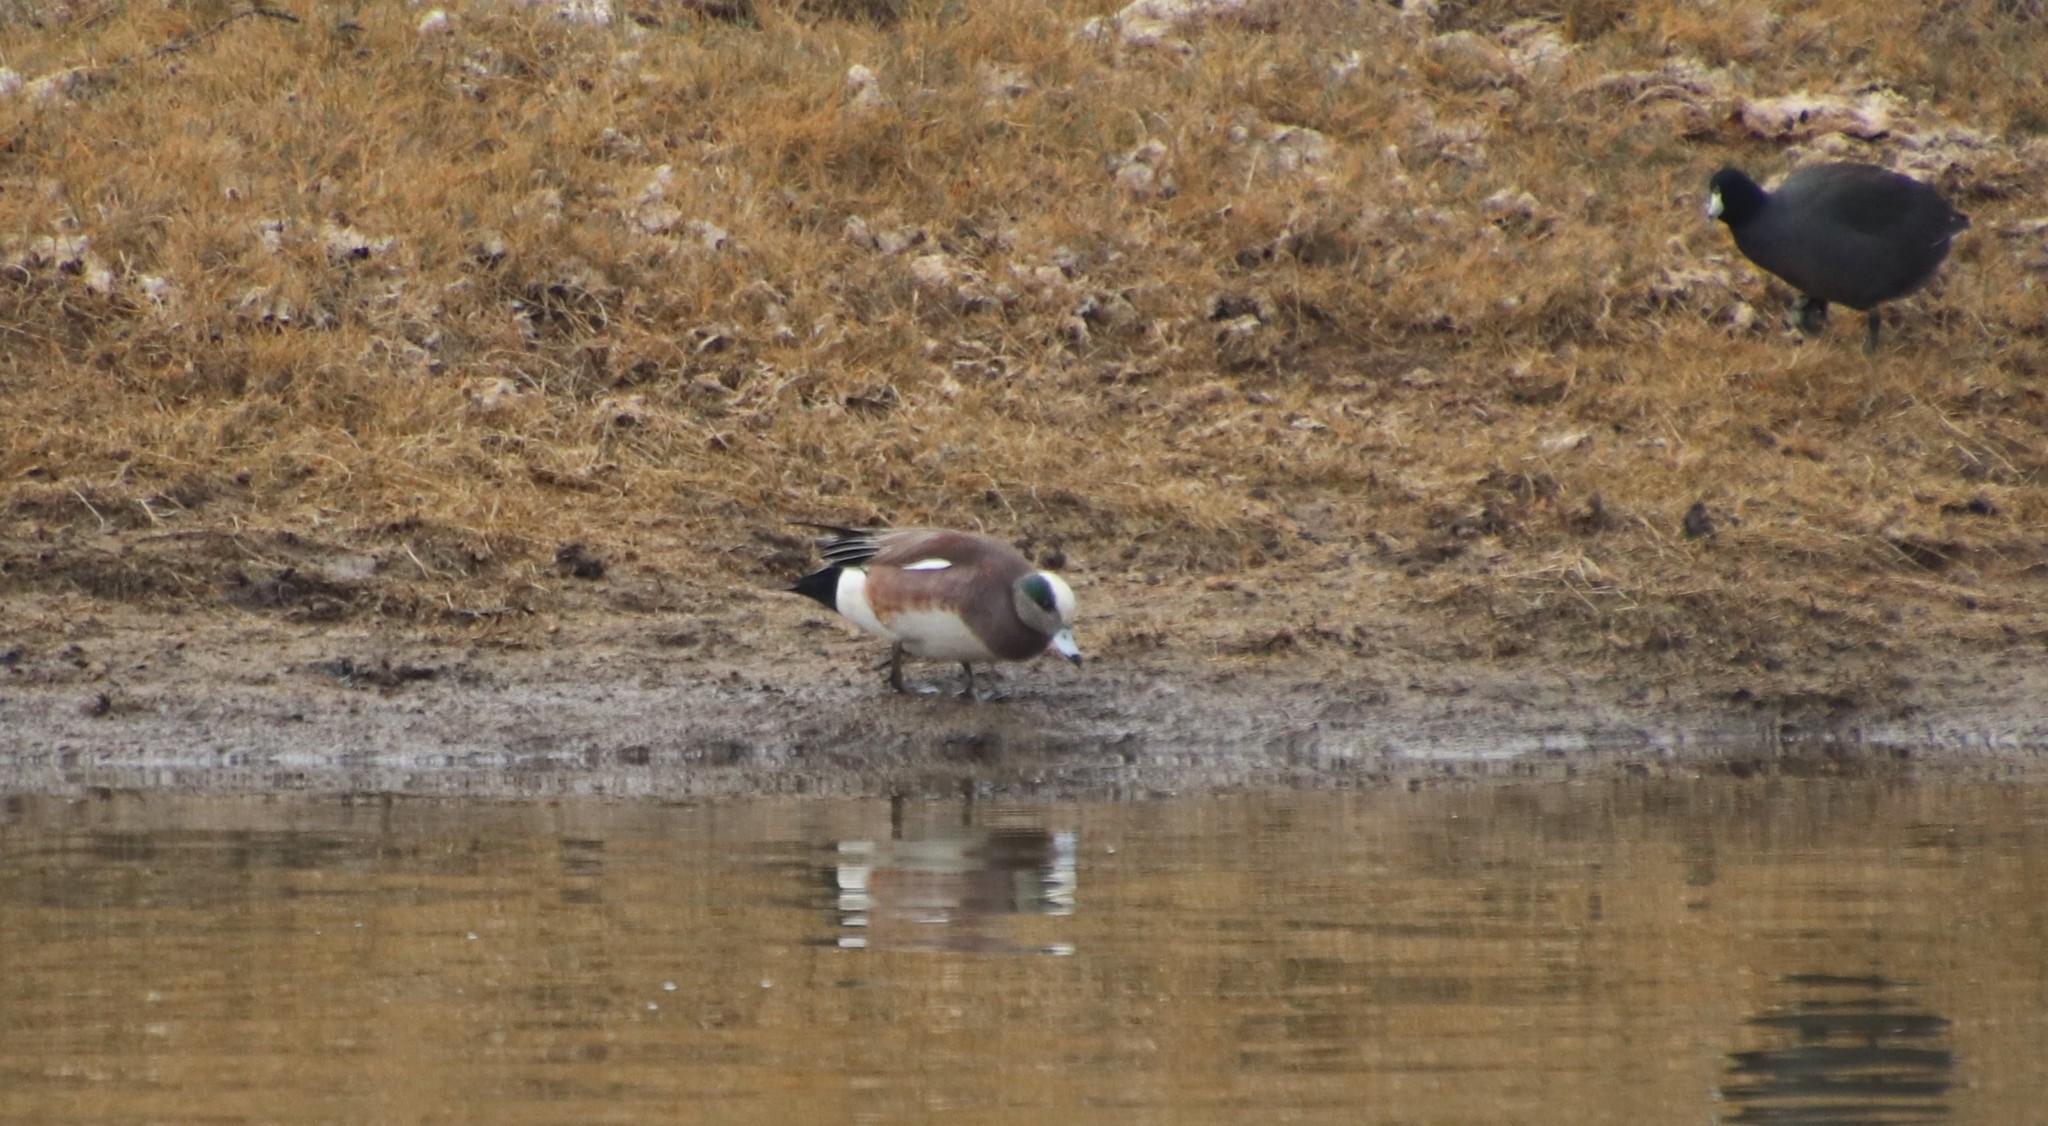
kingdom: Animalia
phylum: Chordata
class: Aves
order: Anseriformes
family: Anatidae
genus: Mareca
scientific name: Mareca americana
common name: American wigeon
